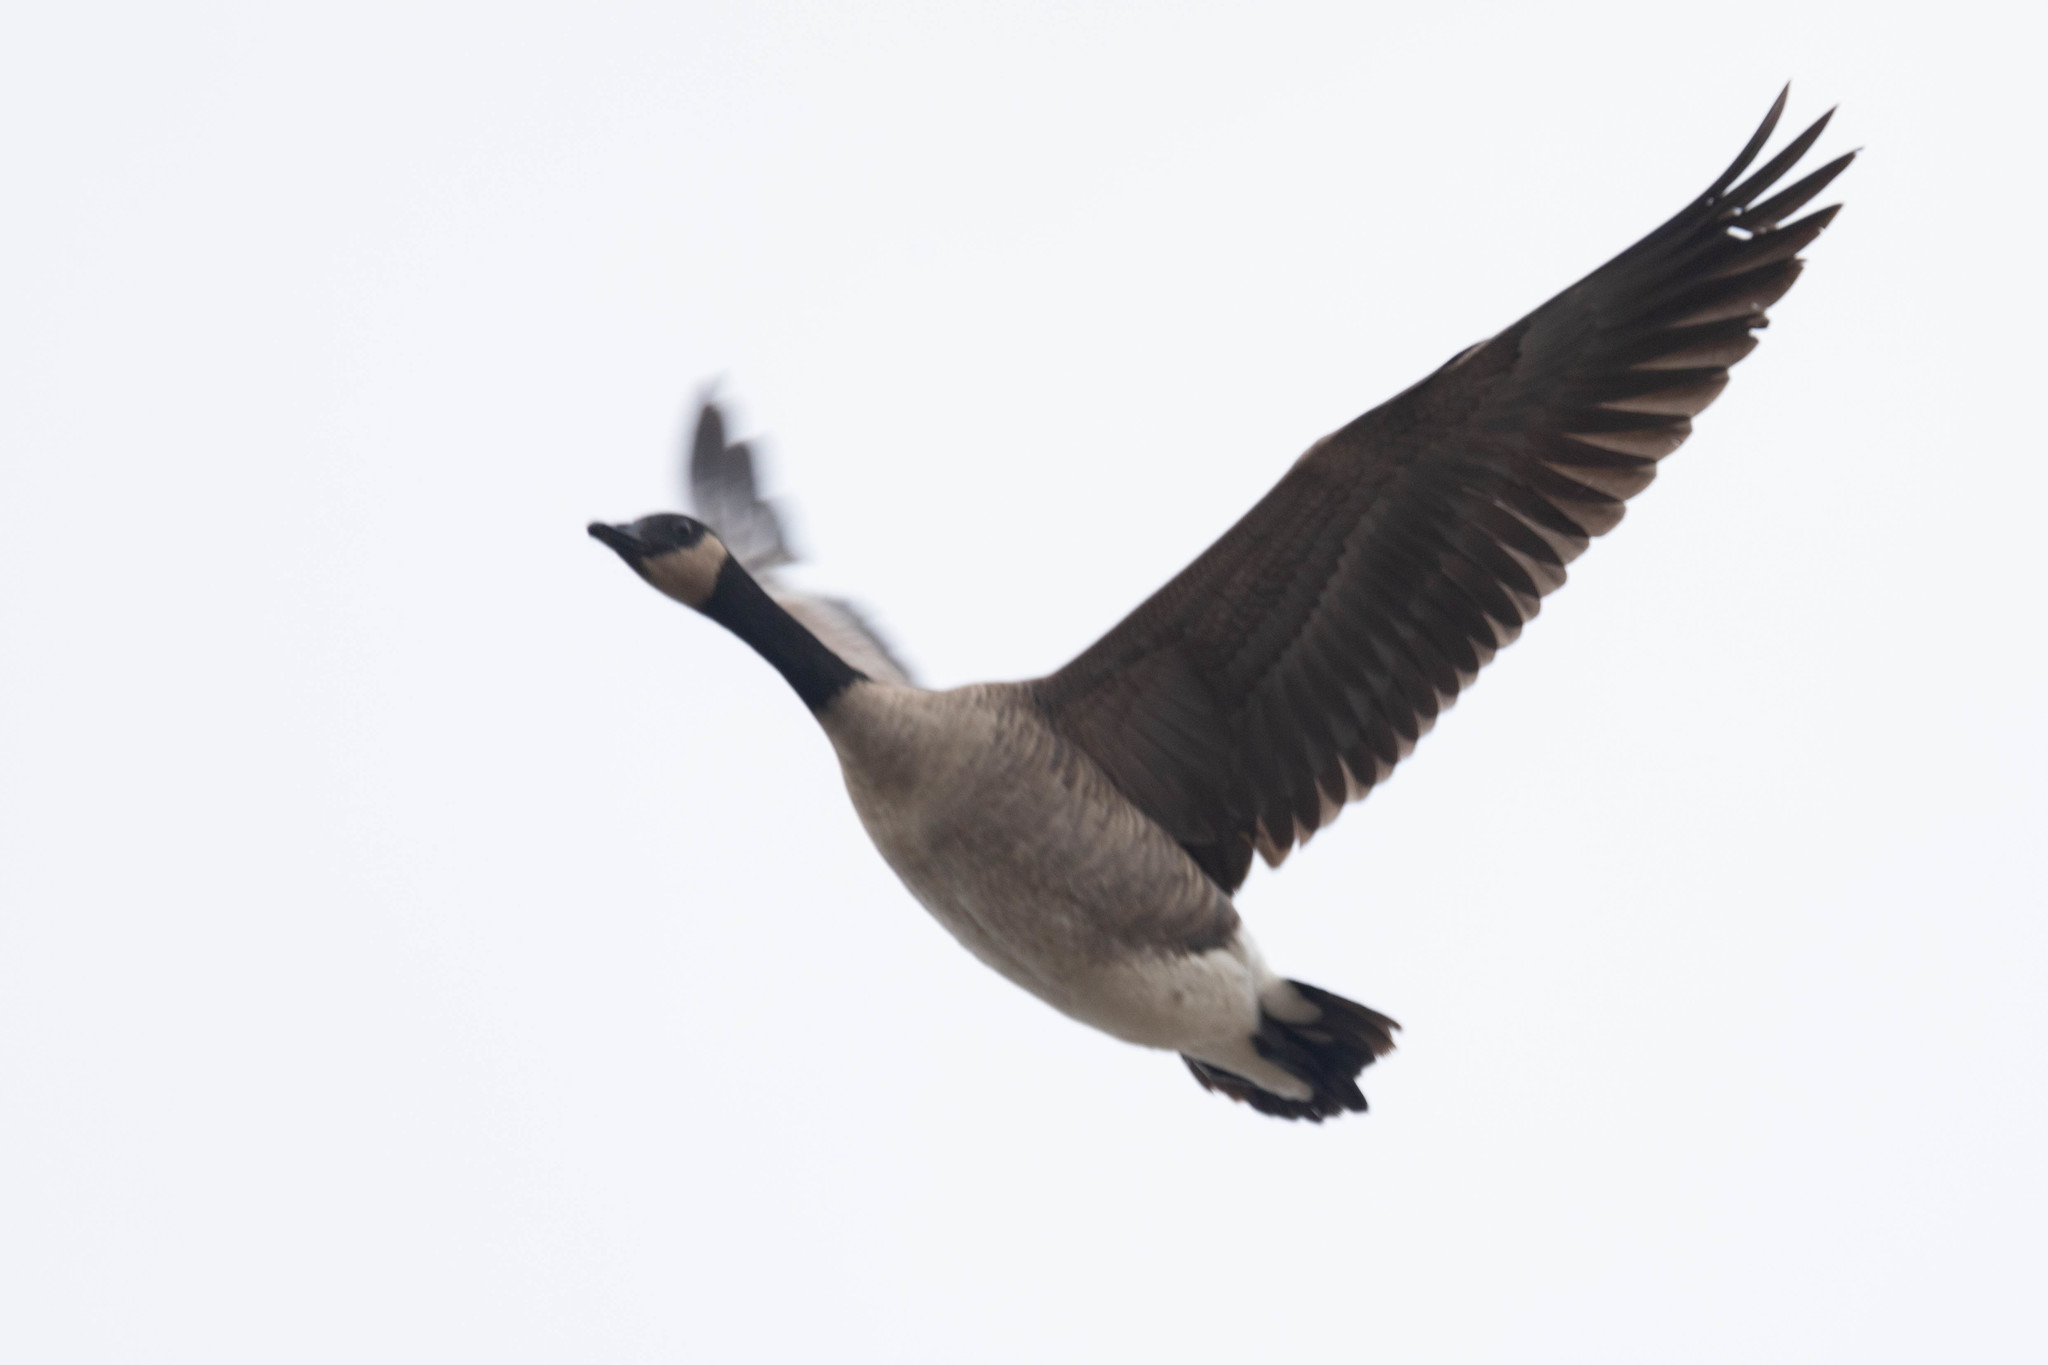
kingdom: Animalia
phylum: Chordata
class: Aves
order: Anseriformes
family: Anatidae
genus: Branta
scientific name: Branta hutchinsii
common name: Cackling goose
